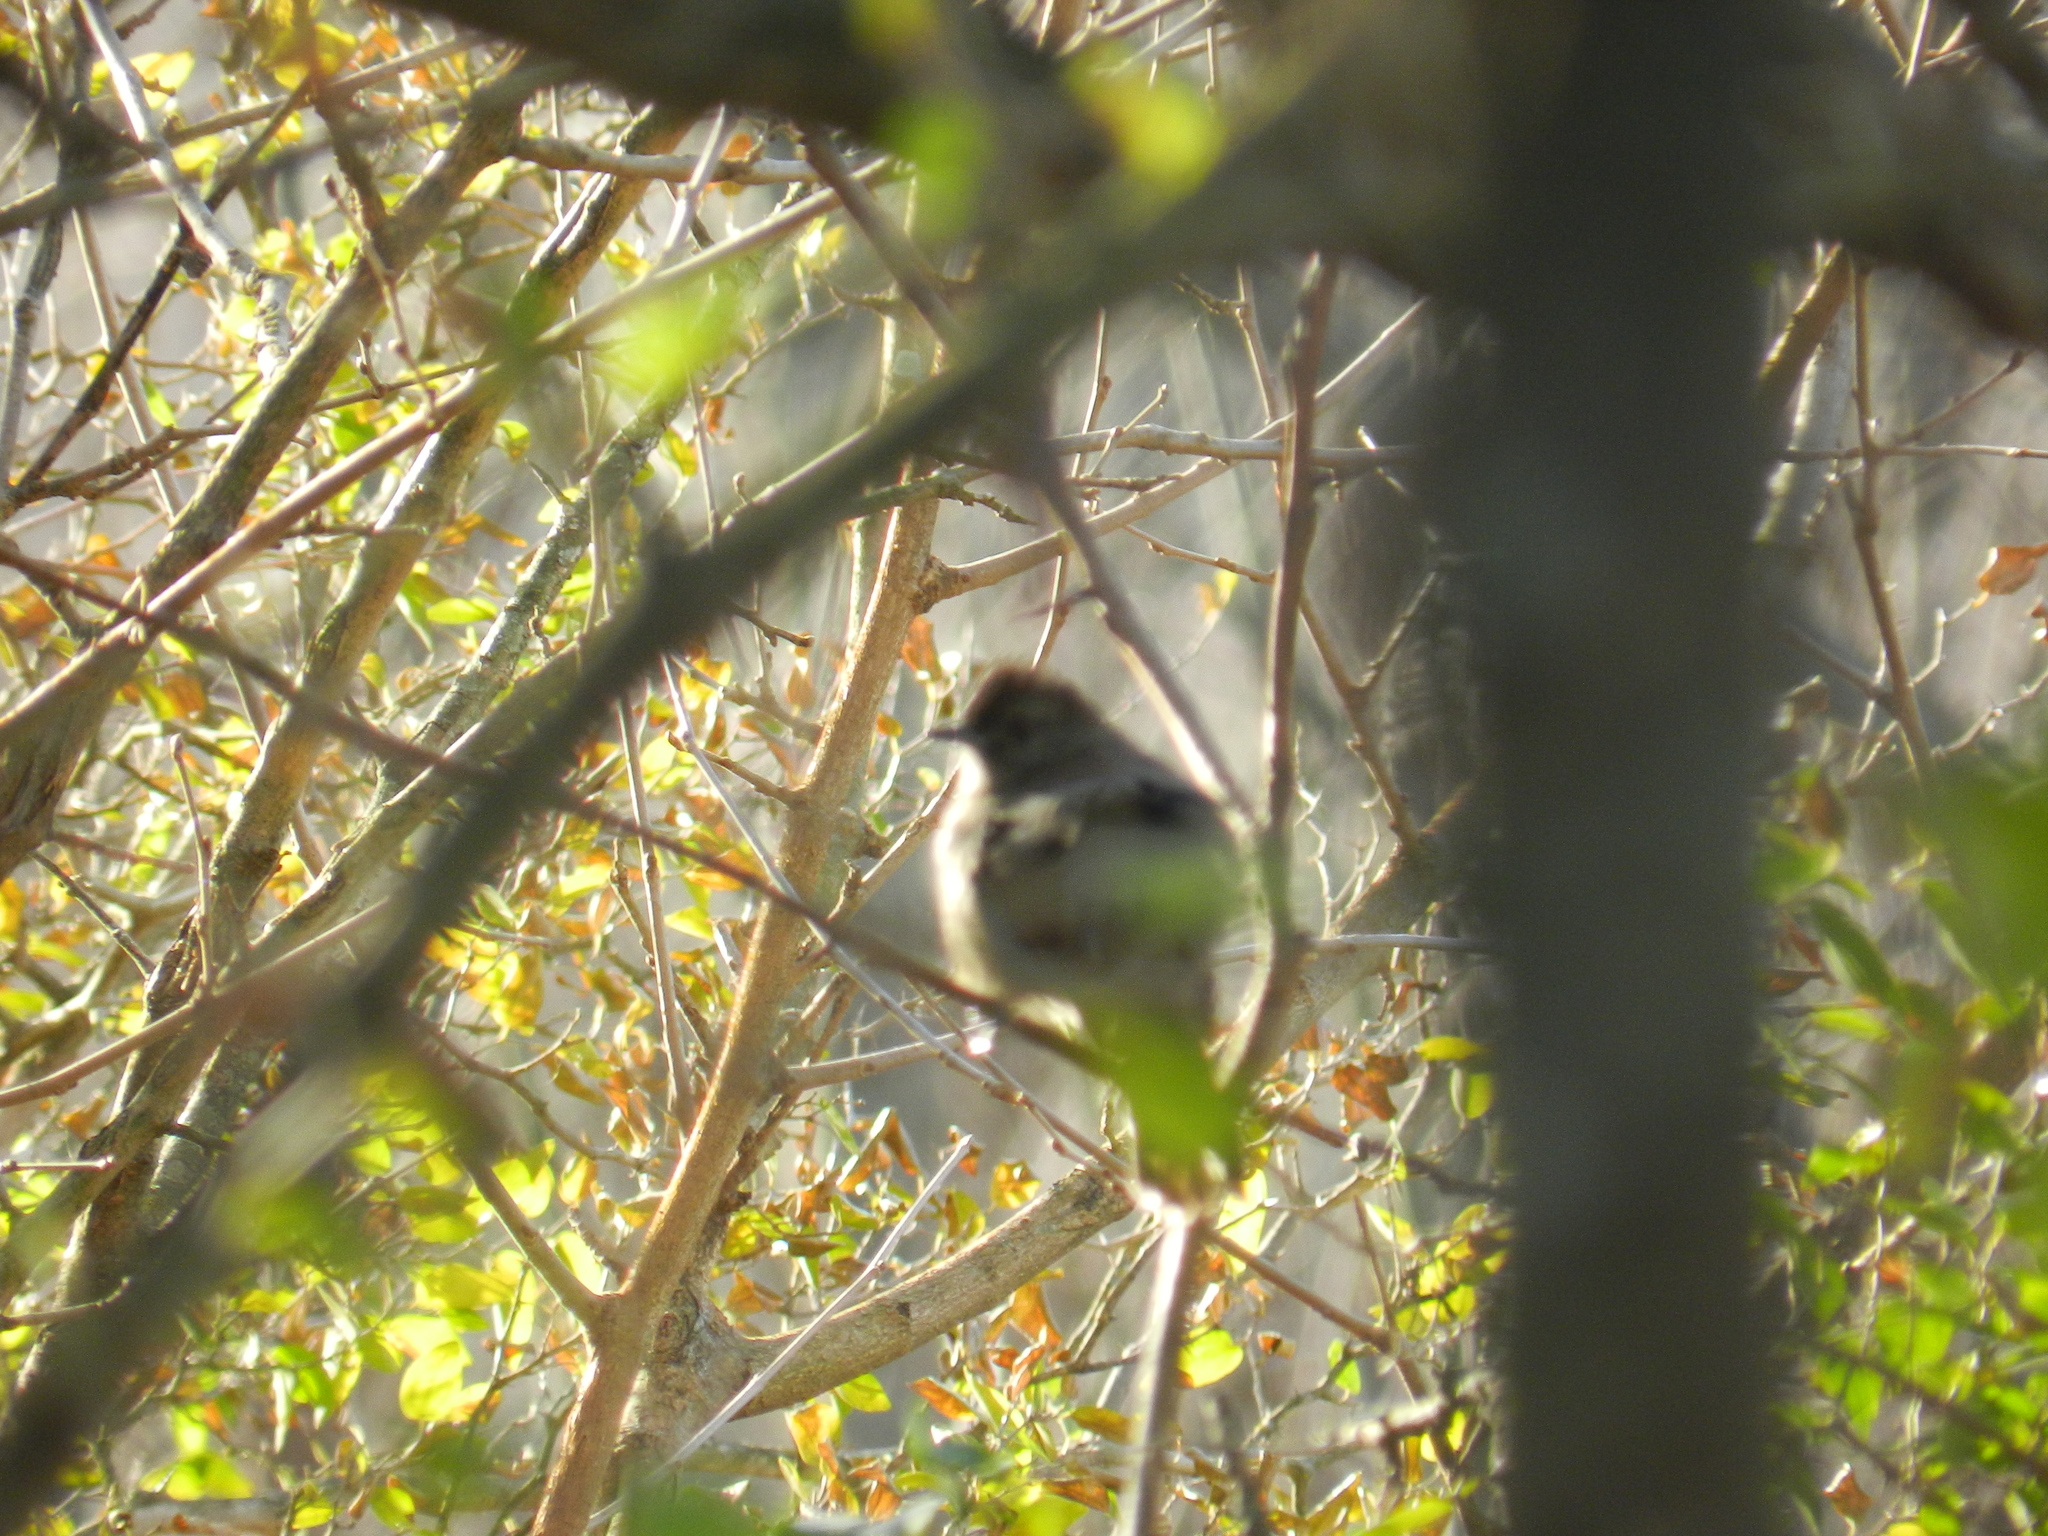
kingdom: Animalia
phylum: Chordata
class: Aves
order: Passeriformes
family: Thamnophilidae
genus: Thamnophilus
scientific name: Thamnophilus ruficapillus
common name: Rufous-capped antshrike
